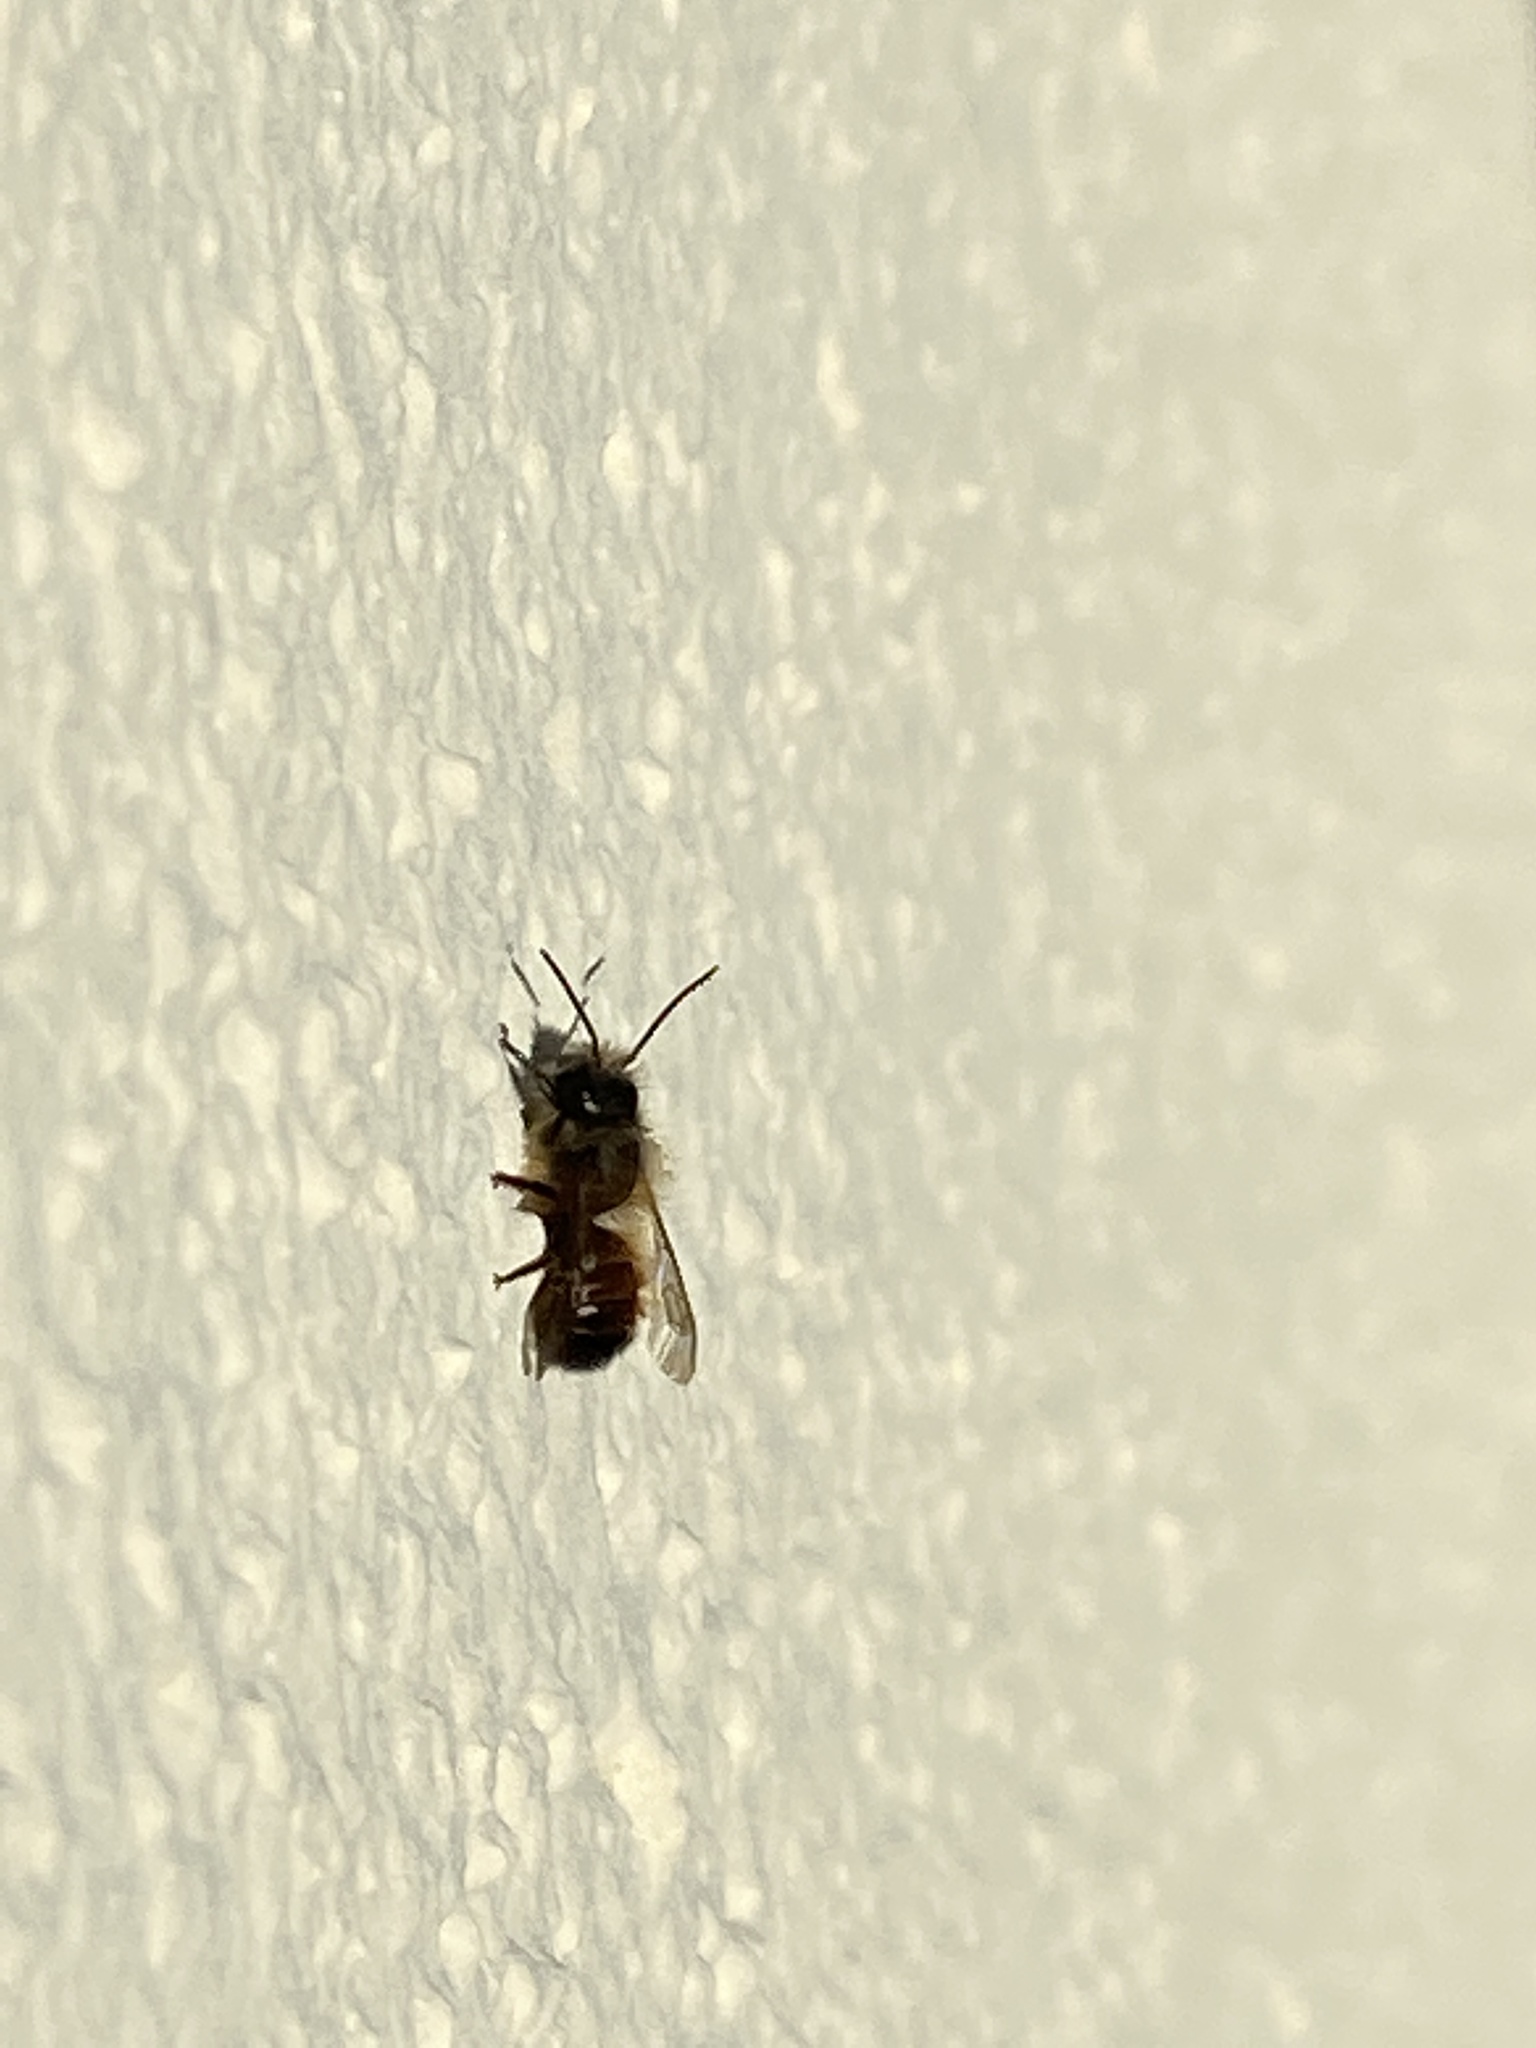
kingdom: Animalia
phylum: Arthropoda
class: Insecta
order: Hymenoptera
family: Megachilidae
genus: Osmia
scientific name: Osmia bicornis
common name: Red mason bee
